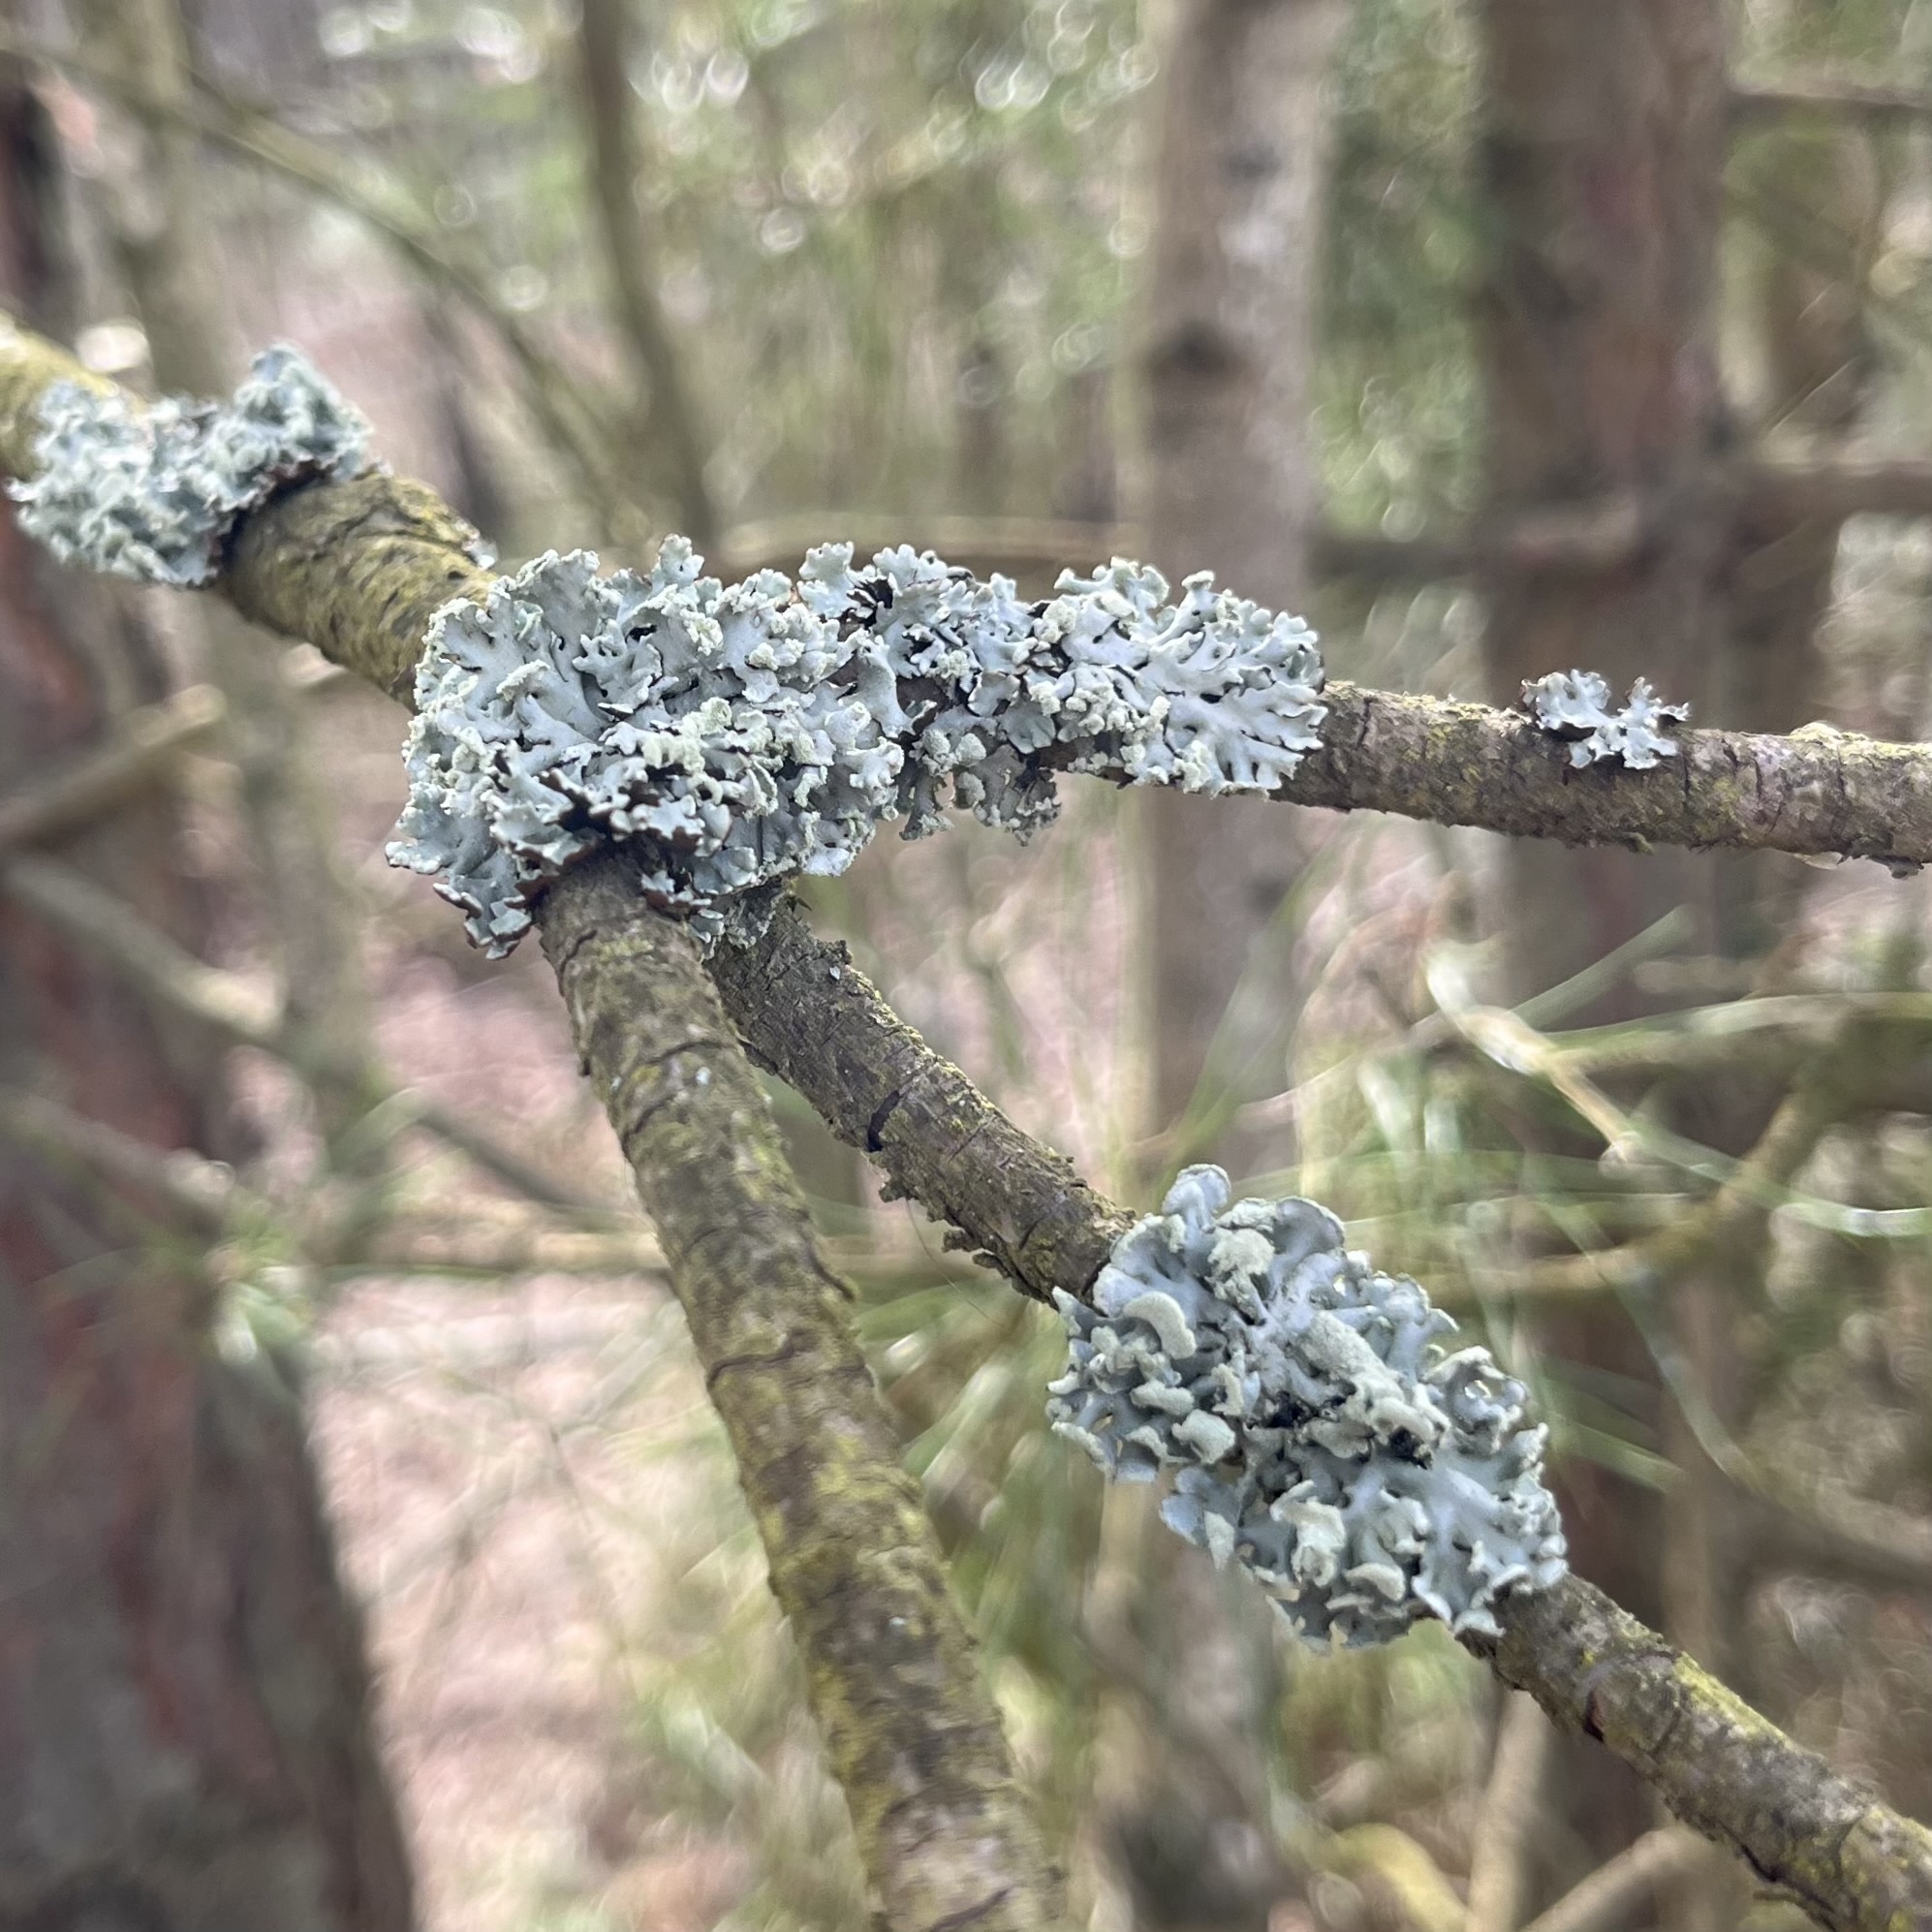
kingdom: Fungi
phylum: Ascomycota
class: Lecanoromycetes
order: Lecanorales
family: Parmeliaceae
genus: Hypogymnia
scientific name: Hypogymnia physodes
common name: Dark crottle
